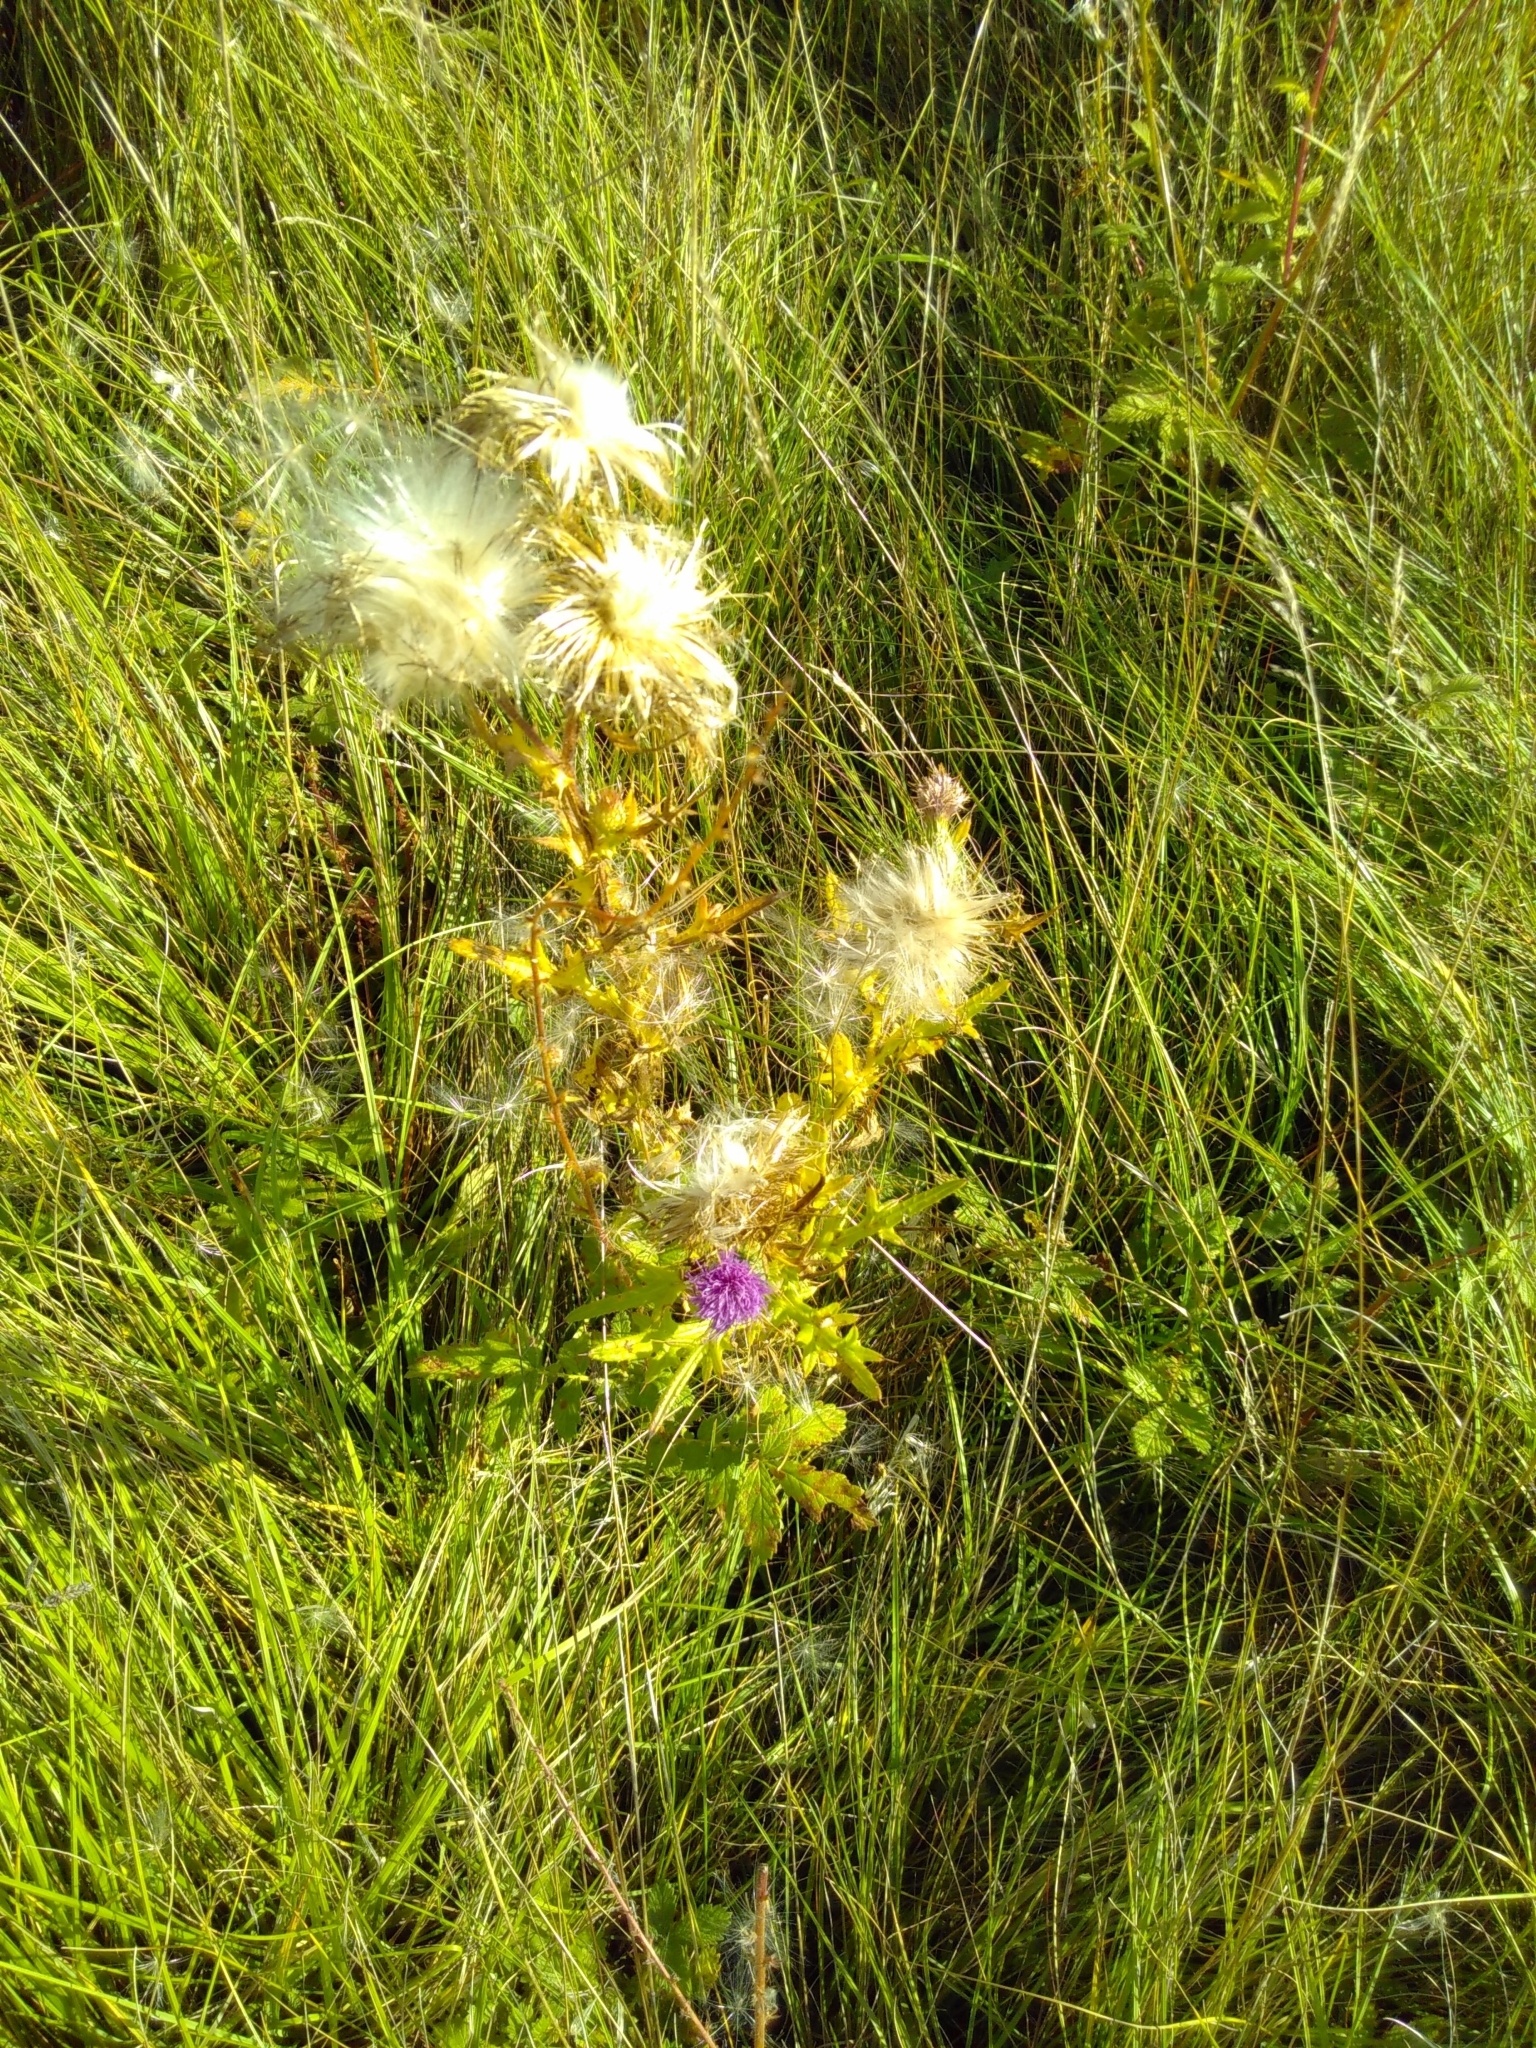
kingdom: Plantae
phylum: Tracheophyta
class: Magnoliopsida
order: Asterales
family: Asteraceae
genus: Cirsium
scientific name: Cirsium vulgare
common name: Bull thistle
